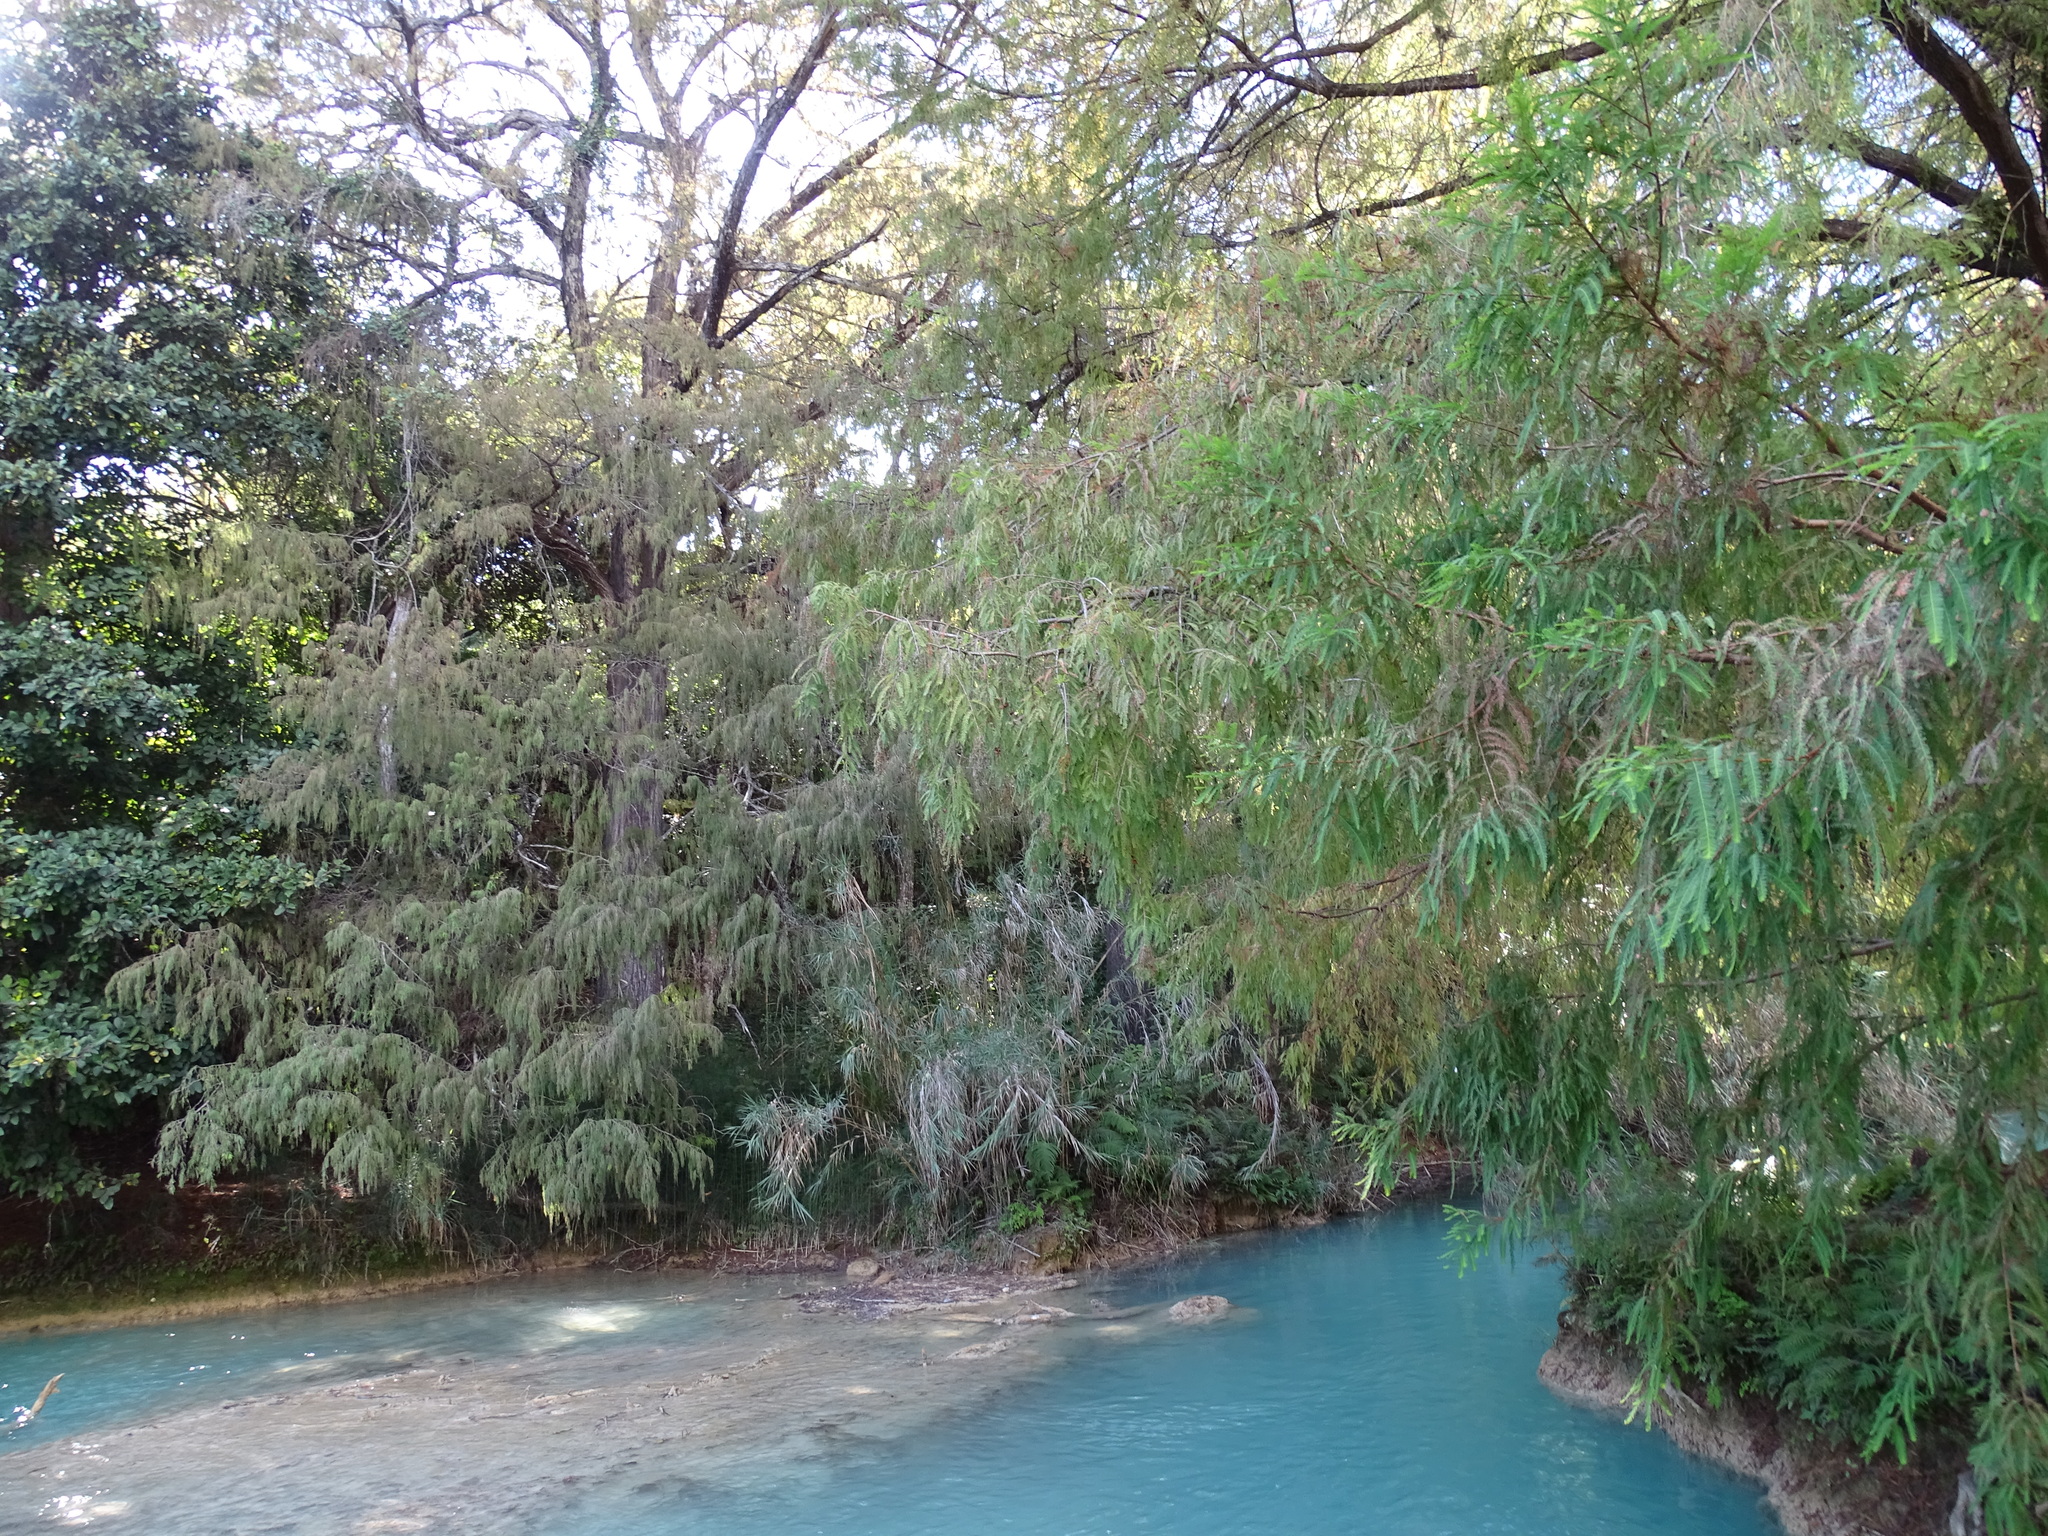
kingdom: Plantae
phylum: Tracheophyta
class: Pinopsida
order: Pinales
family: Cupressaceae
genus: Taxodium
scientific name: Taxodium mucronatum
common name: Montezume bald cypress
